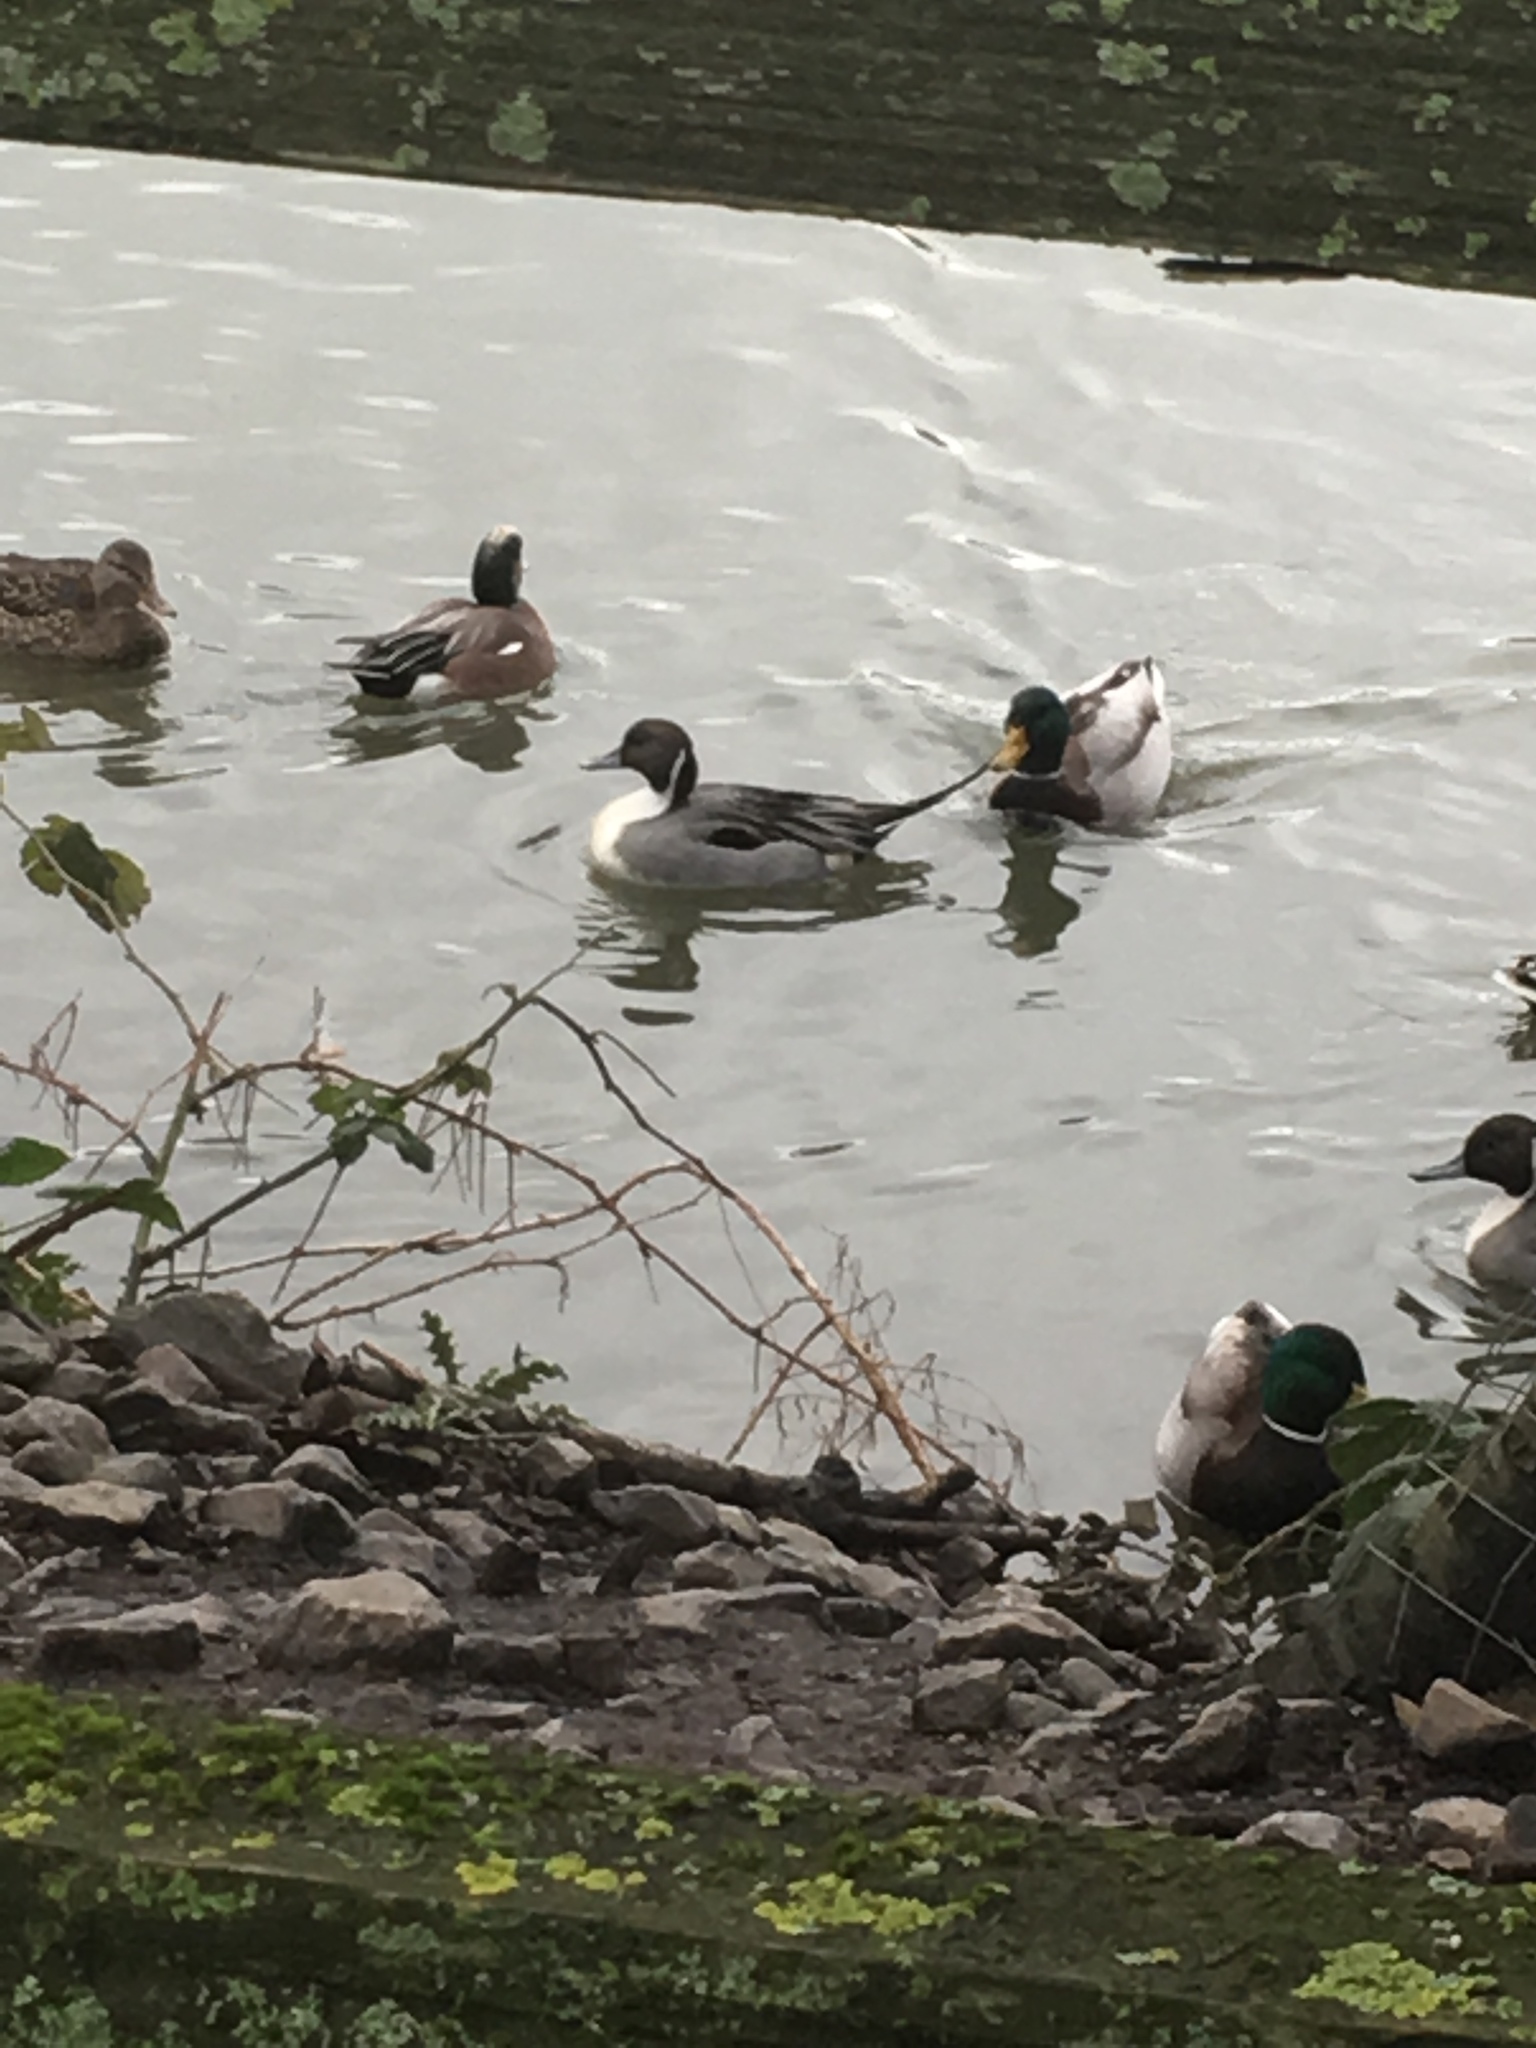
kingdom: Animalia
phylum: Chordata
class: Aves
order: Anseriformes
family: Anatidae
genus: Anas
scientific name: Anas acuta
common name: Northern pintail
